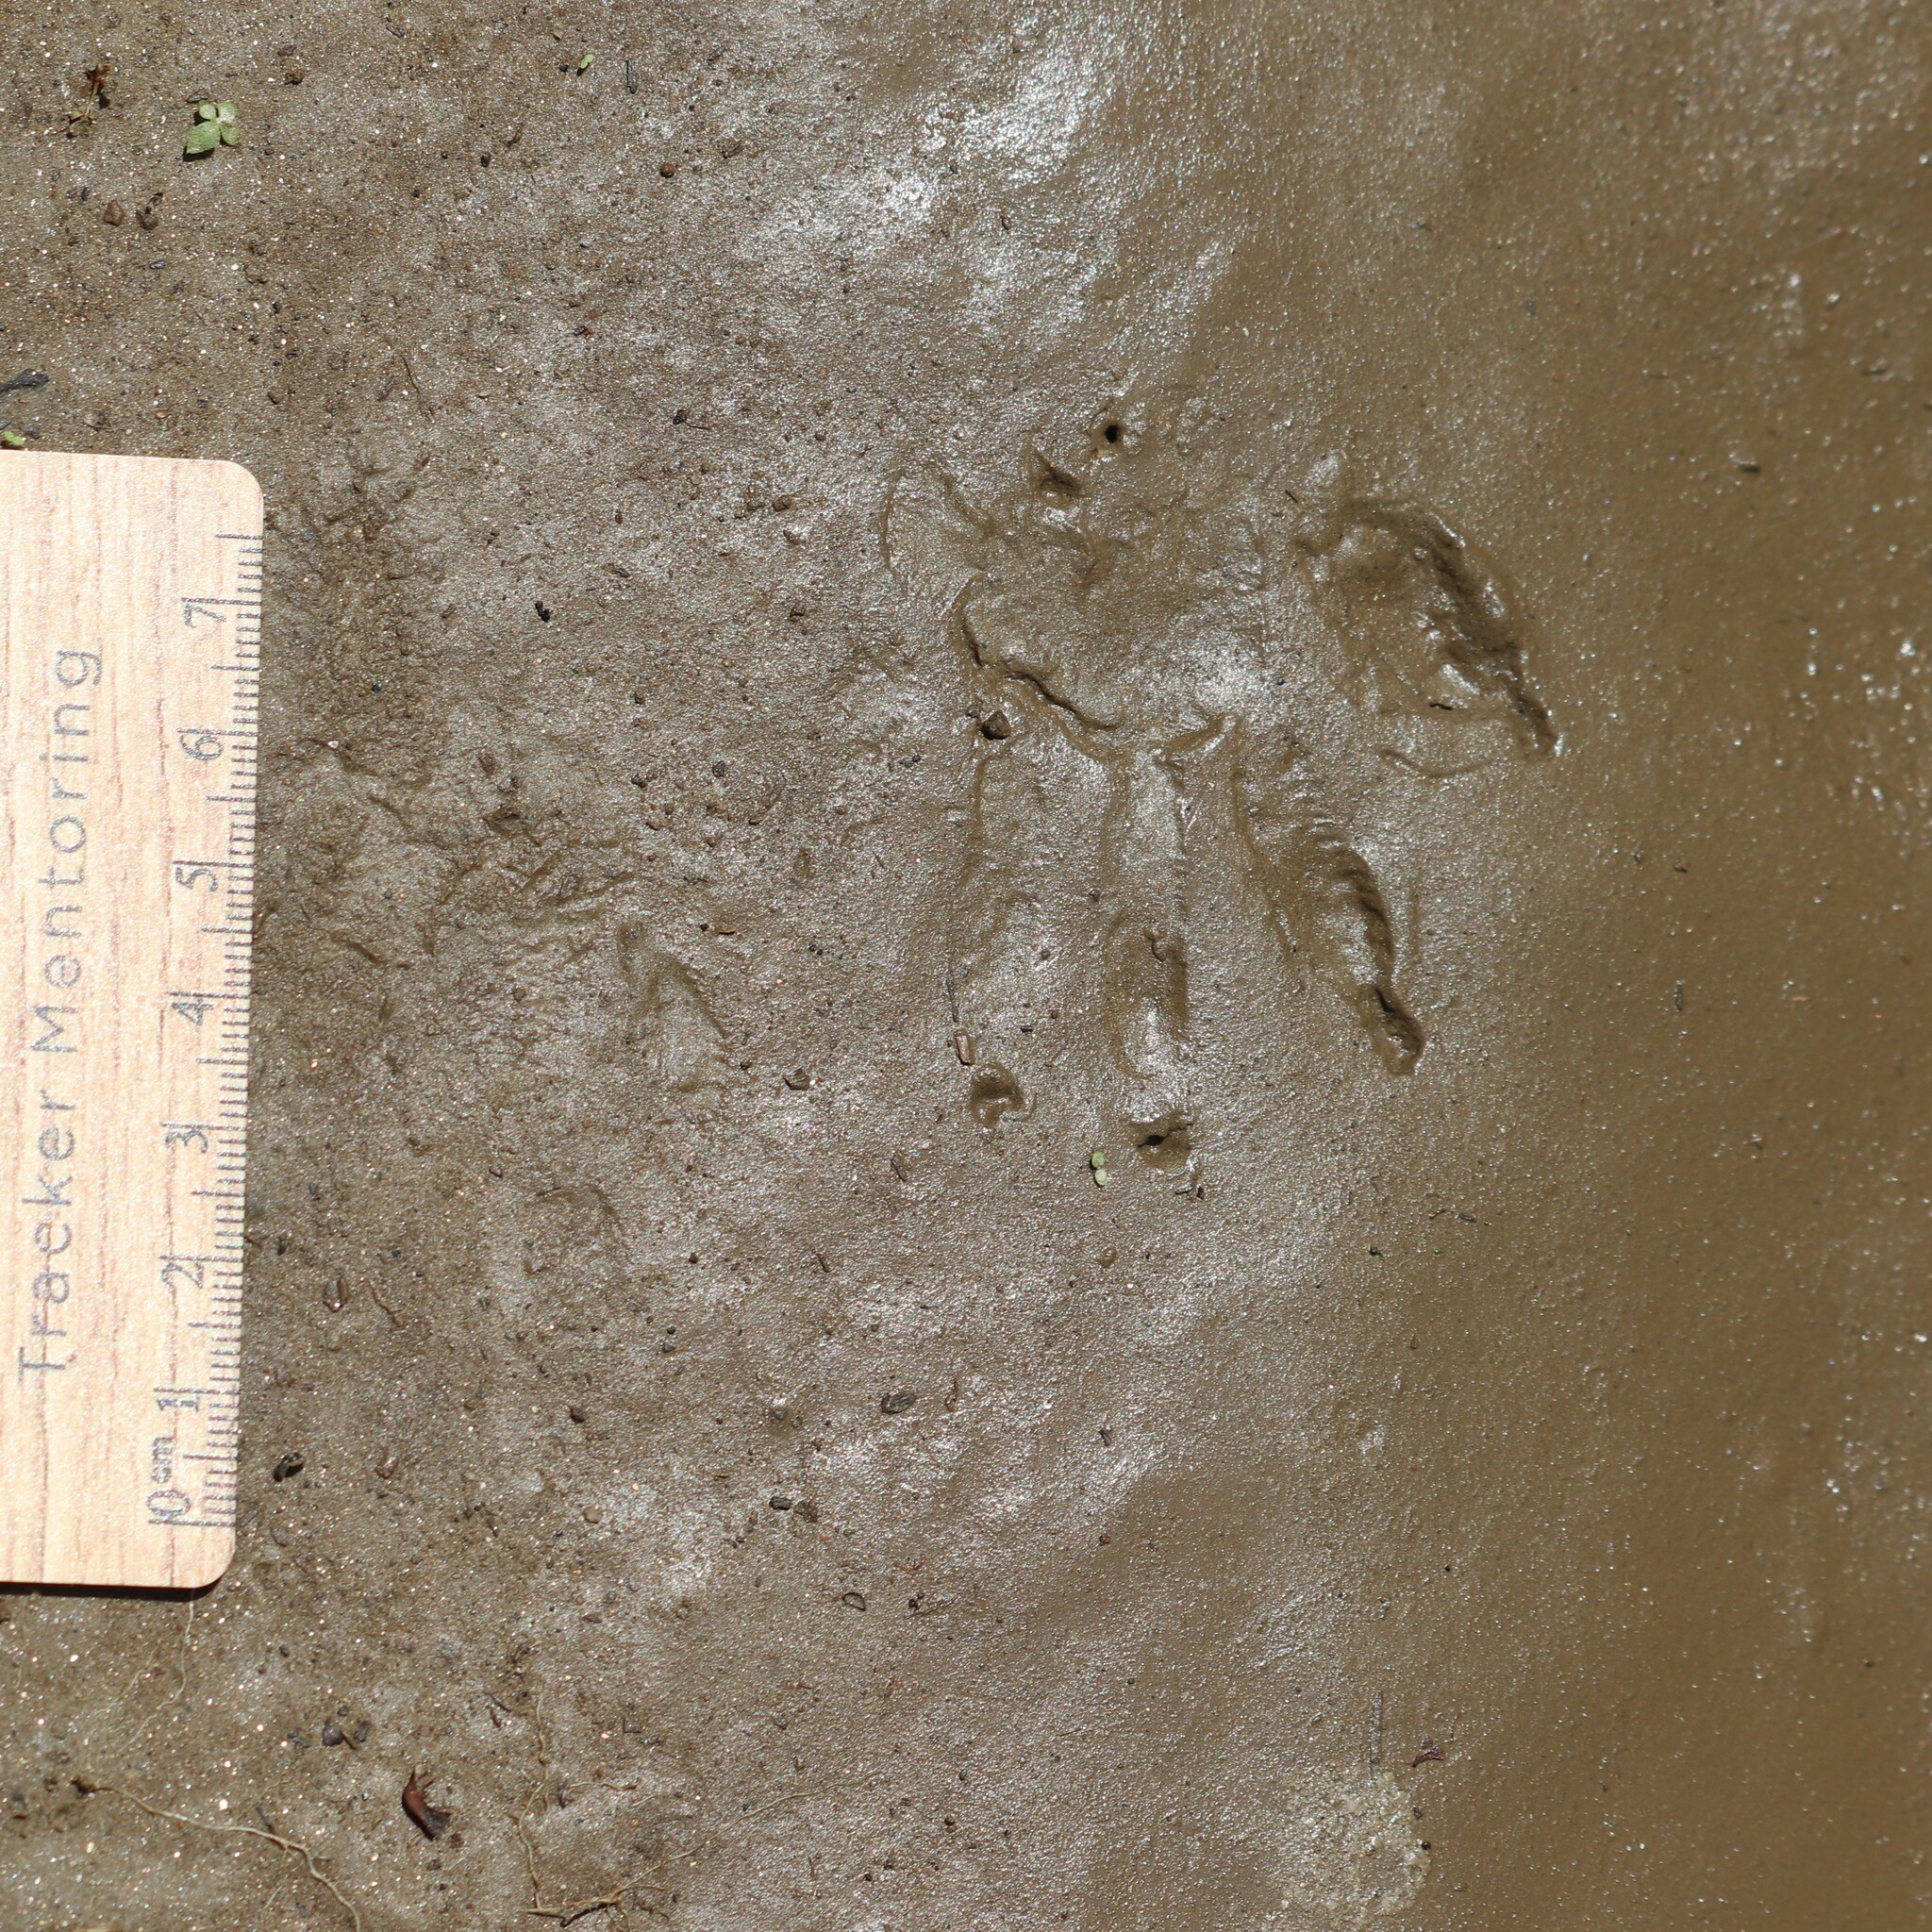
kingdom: Animalia
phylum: Chordata
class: Mammalia
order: Carnivora
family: Procyonidae
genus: Procyon
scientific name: Procyon lotor
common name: Raccoon
